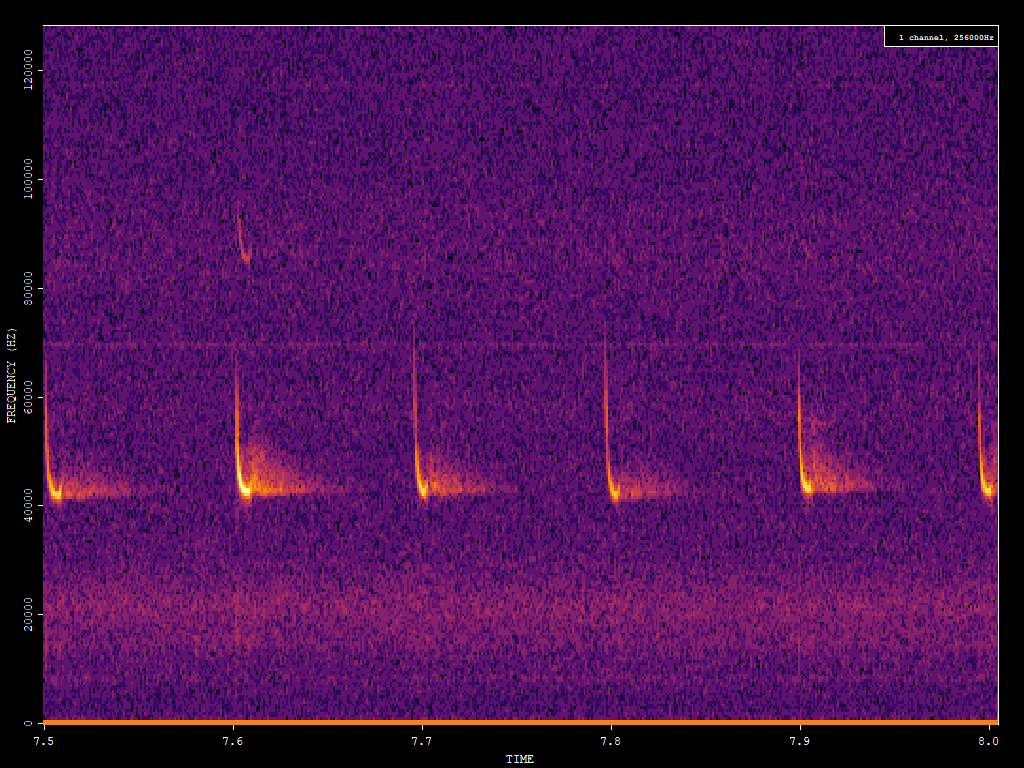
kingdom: Animalia
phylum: Chordata
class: Mammalia
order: Chiroptera
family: Vespertilionidae
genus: Pipistrellus
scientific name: Pipistrellus pipistrellus
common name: Common pipistrelle
